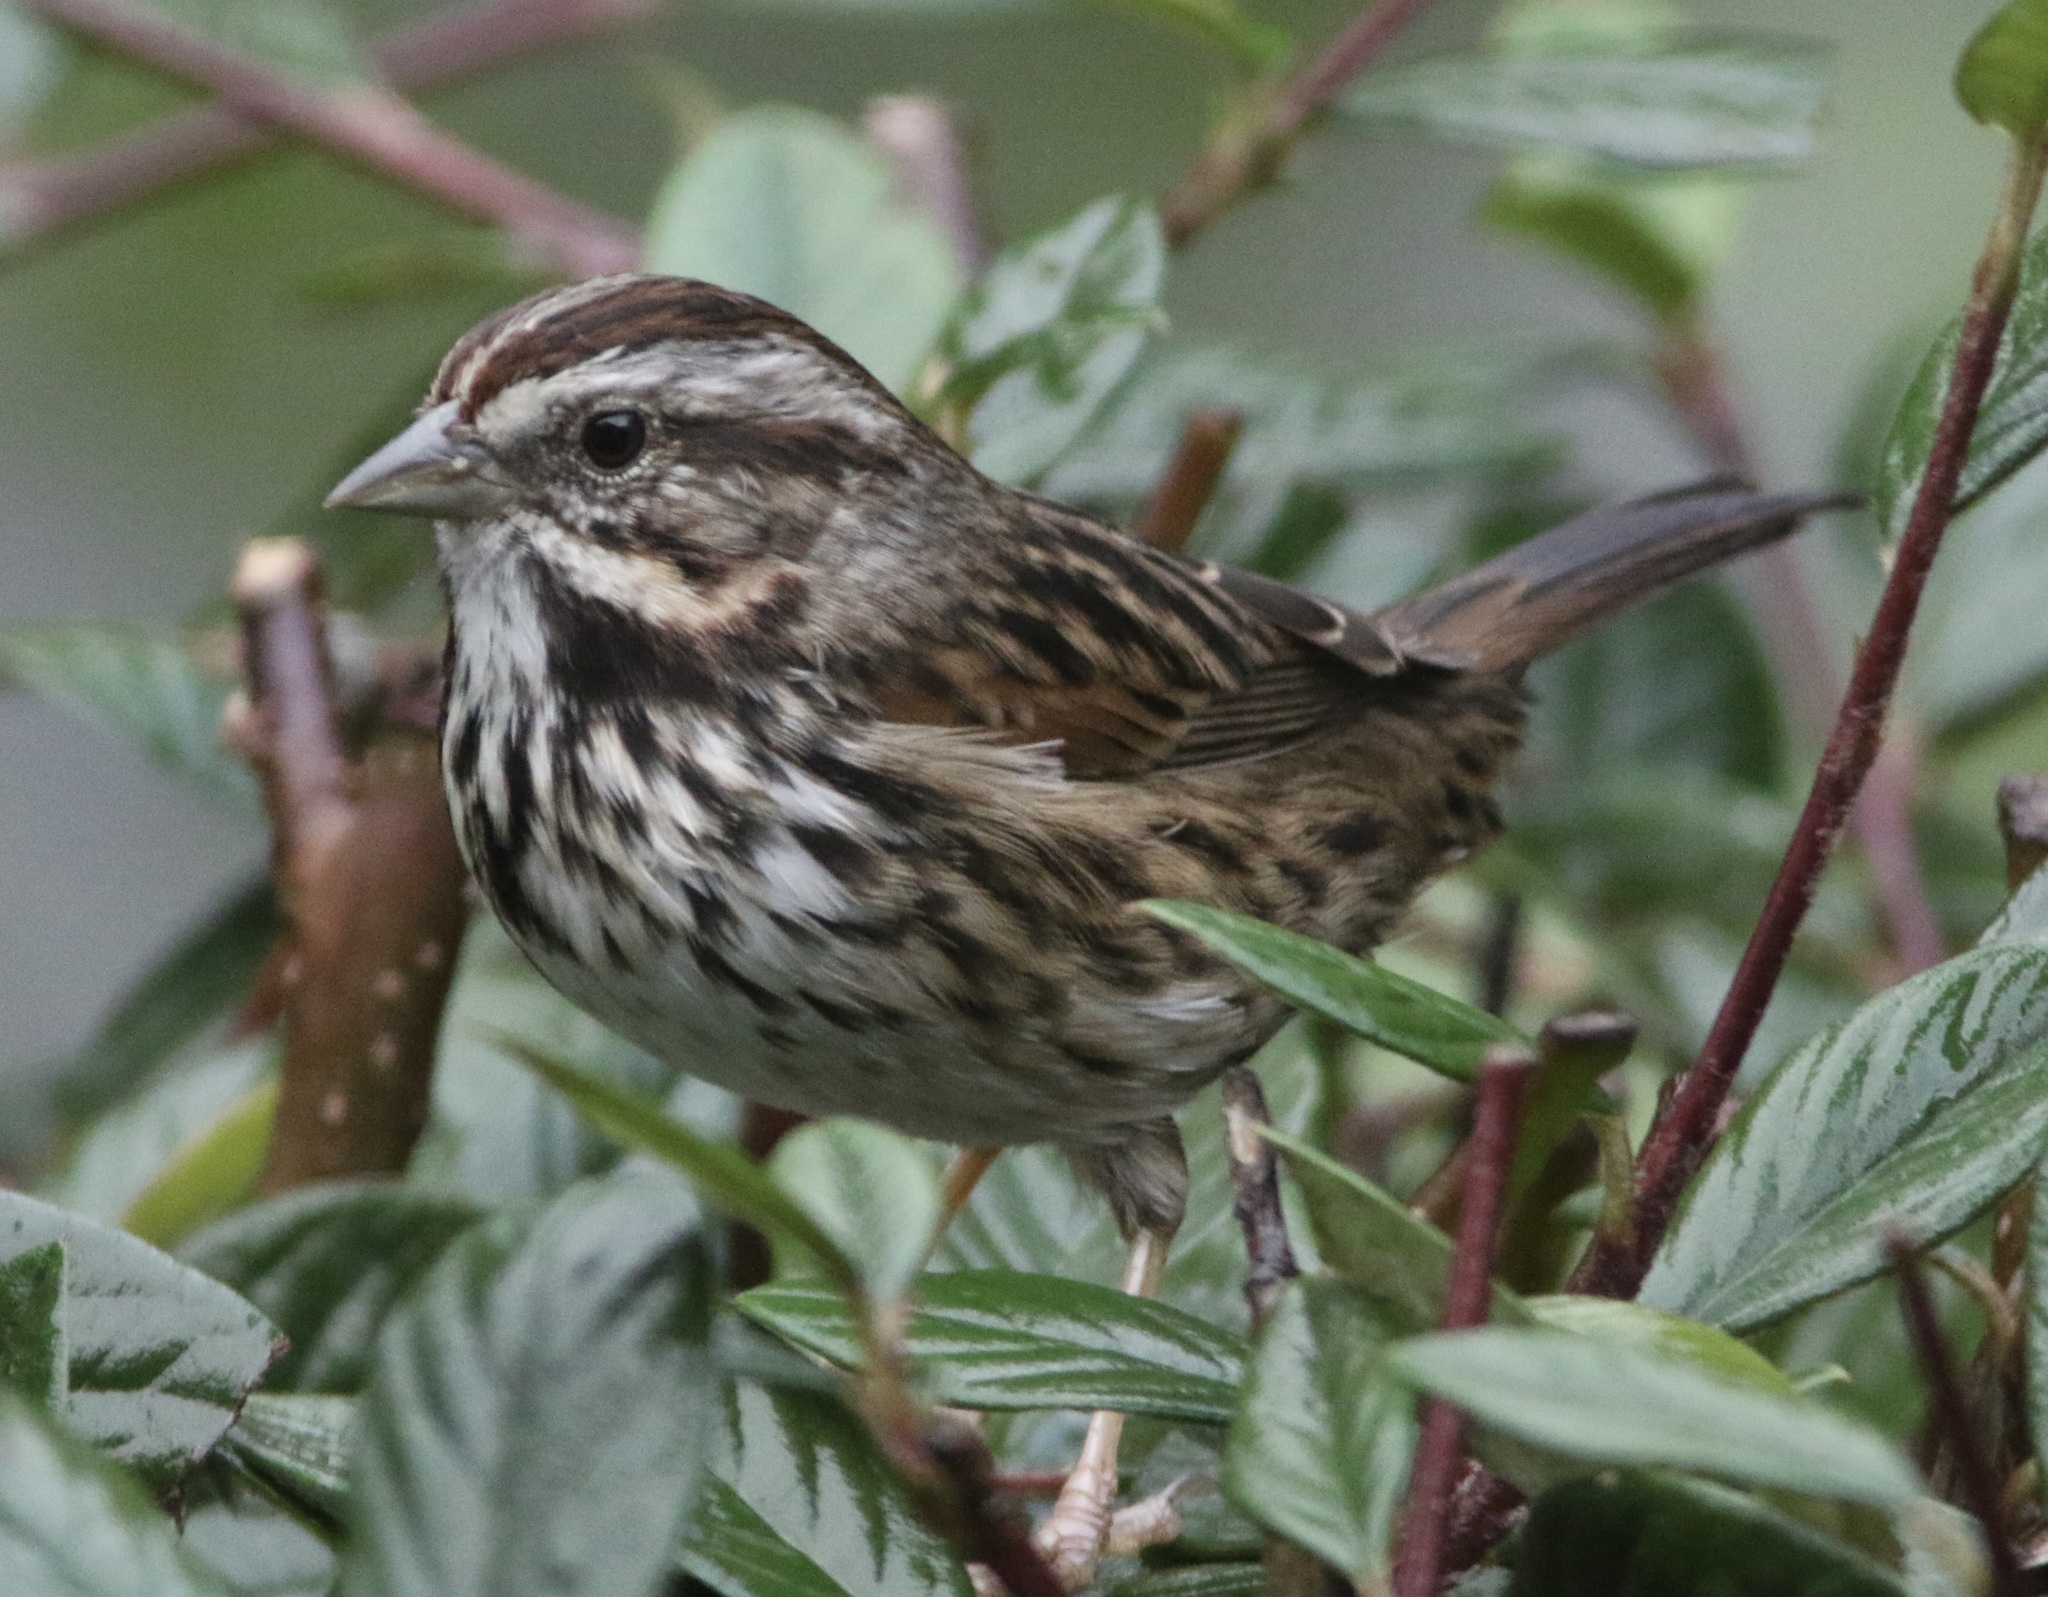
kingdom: Animalia
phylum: Chordata
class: Aves
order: Passeriformes
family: Passerellidae
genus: Melospiza
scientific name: Melospiza melodia
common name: Song sparrow
